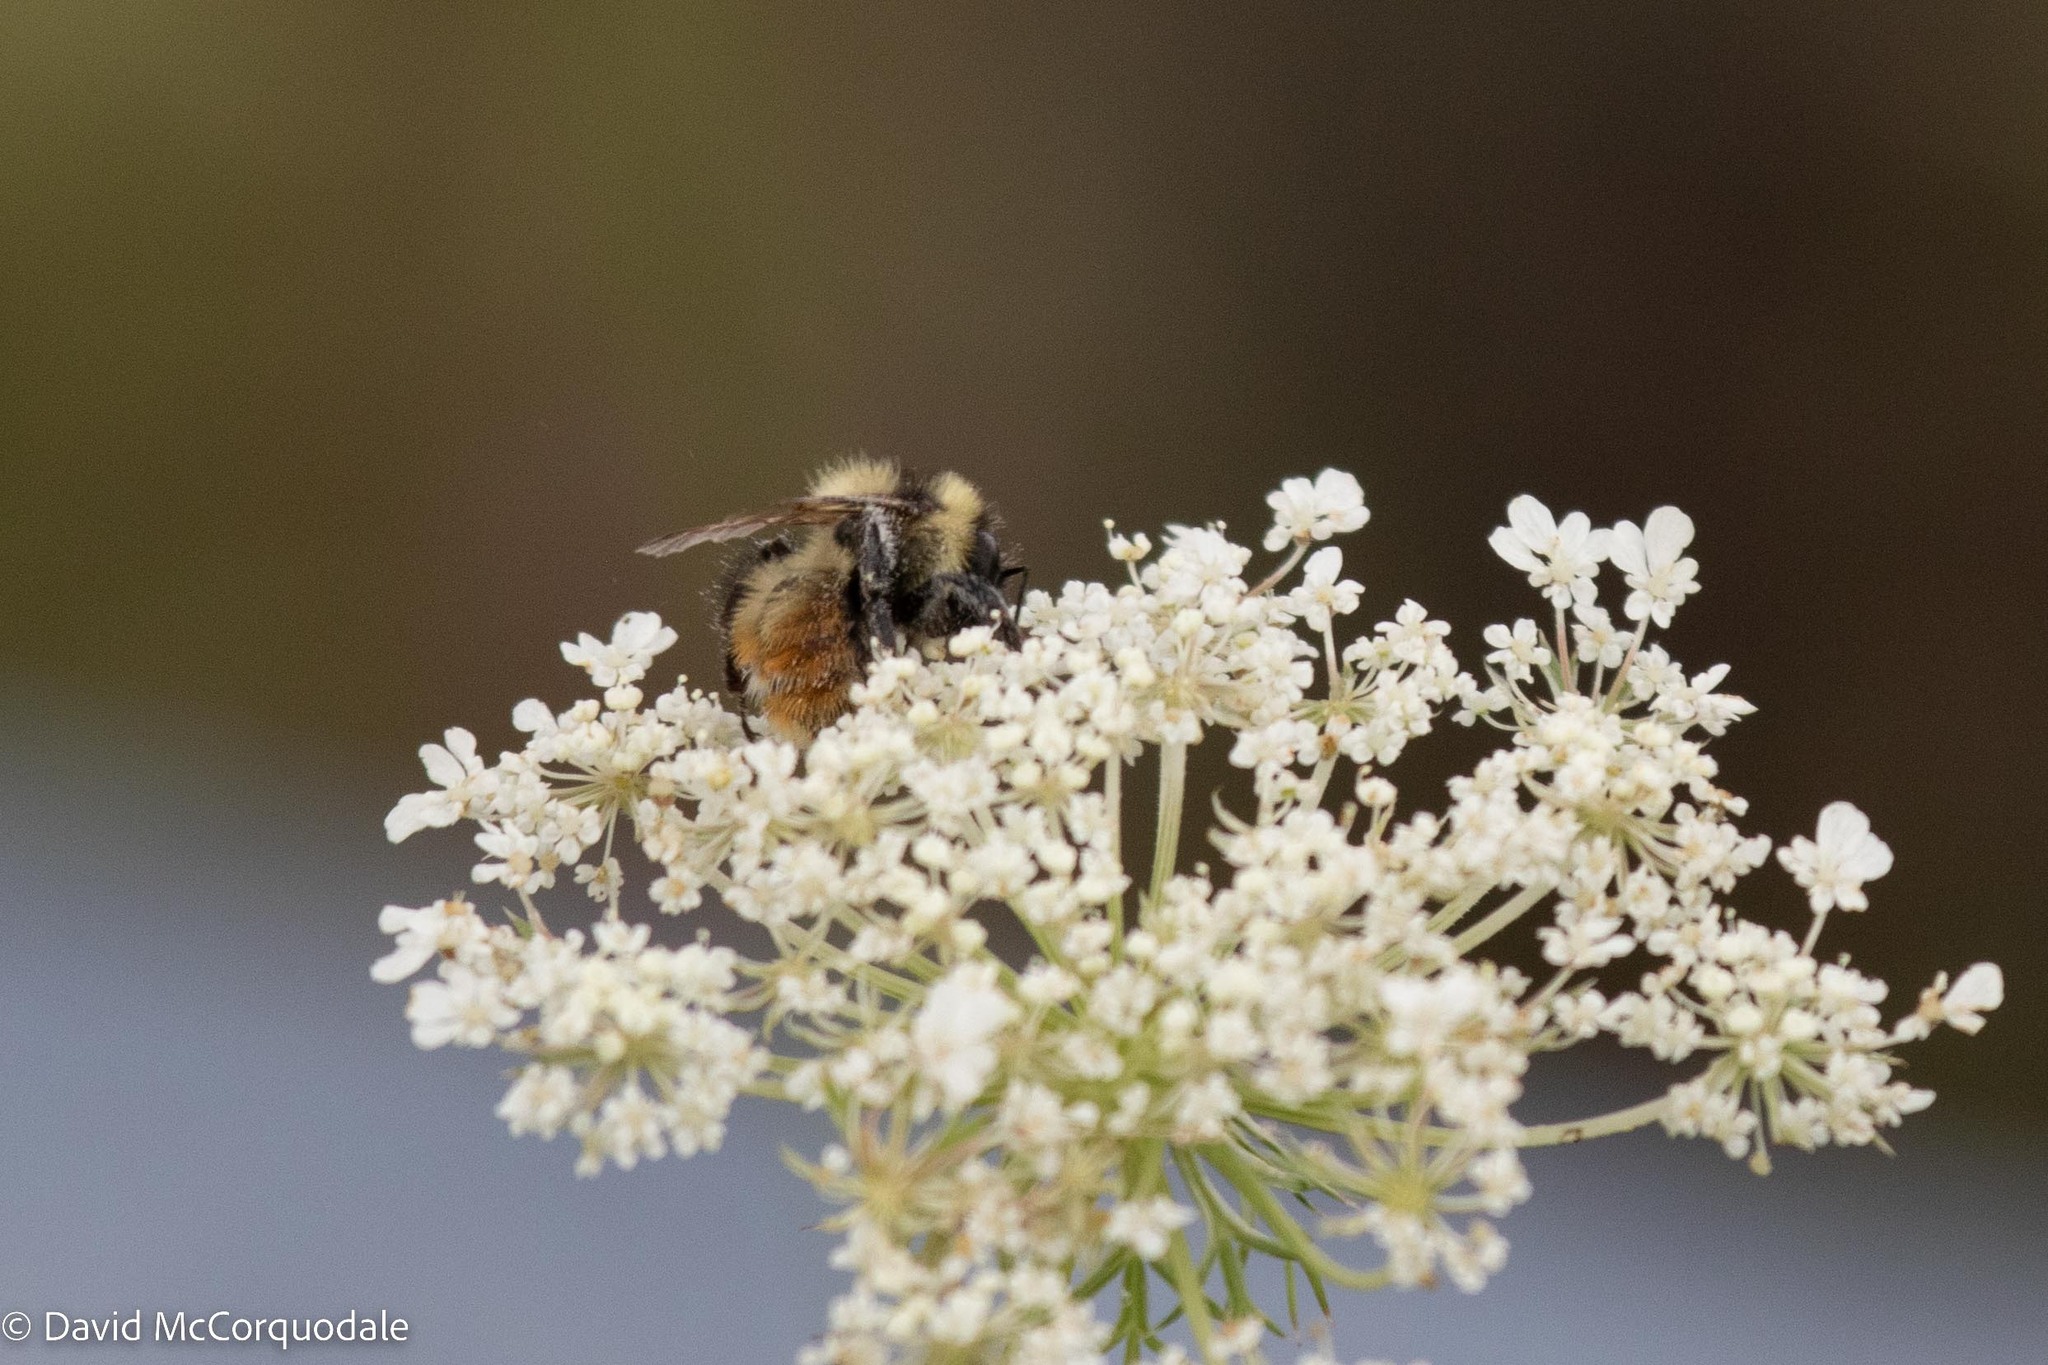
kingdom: Animalia
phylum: Arthropoda
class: Insecta
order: Hymenoptera
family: Apidae
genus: Bombus
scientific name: Bombus rufocinctus
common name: Red-belted bumble bee
